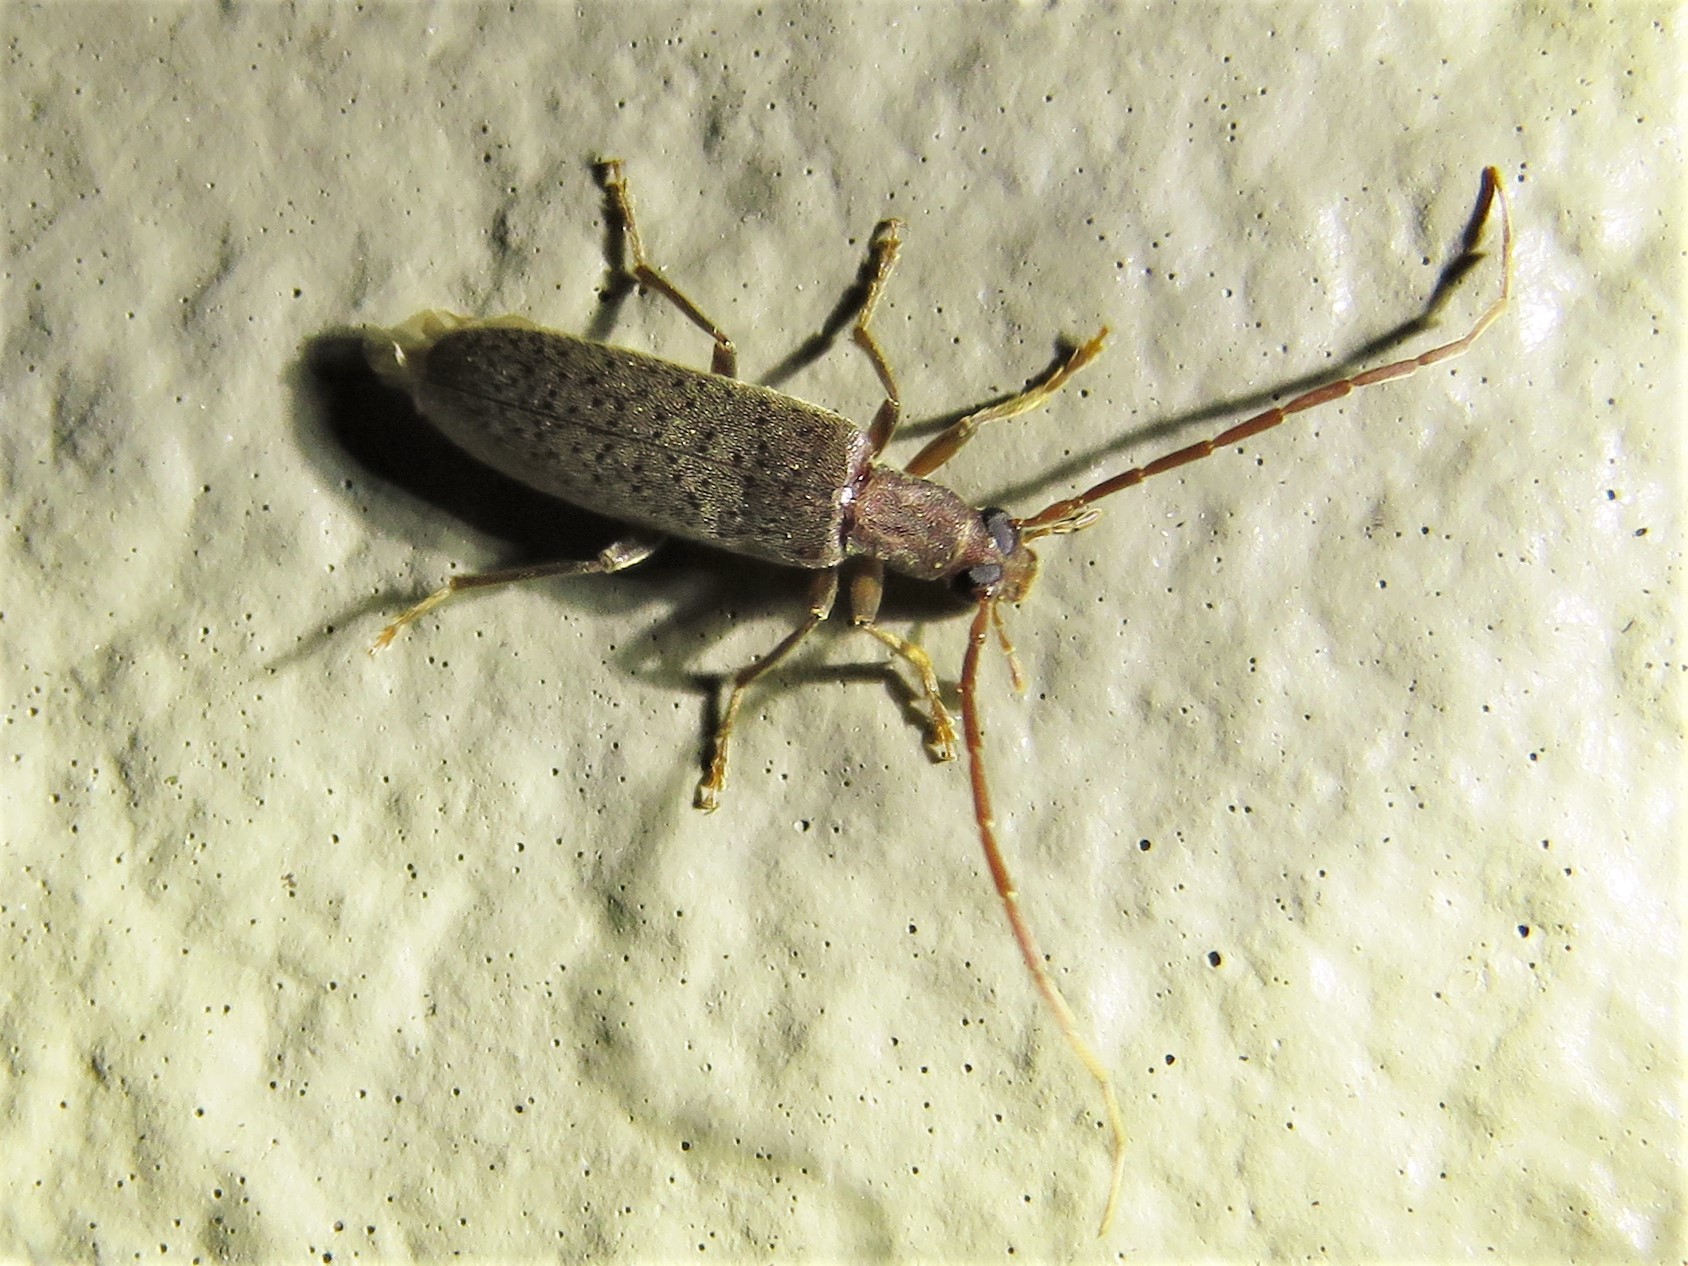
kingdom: Animalia
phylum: Arthropoda
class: Insecta
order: Coleoptera
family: Oedemeridae
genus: Sparedrus
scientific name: Sparedrus aspersus
